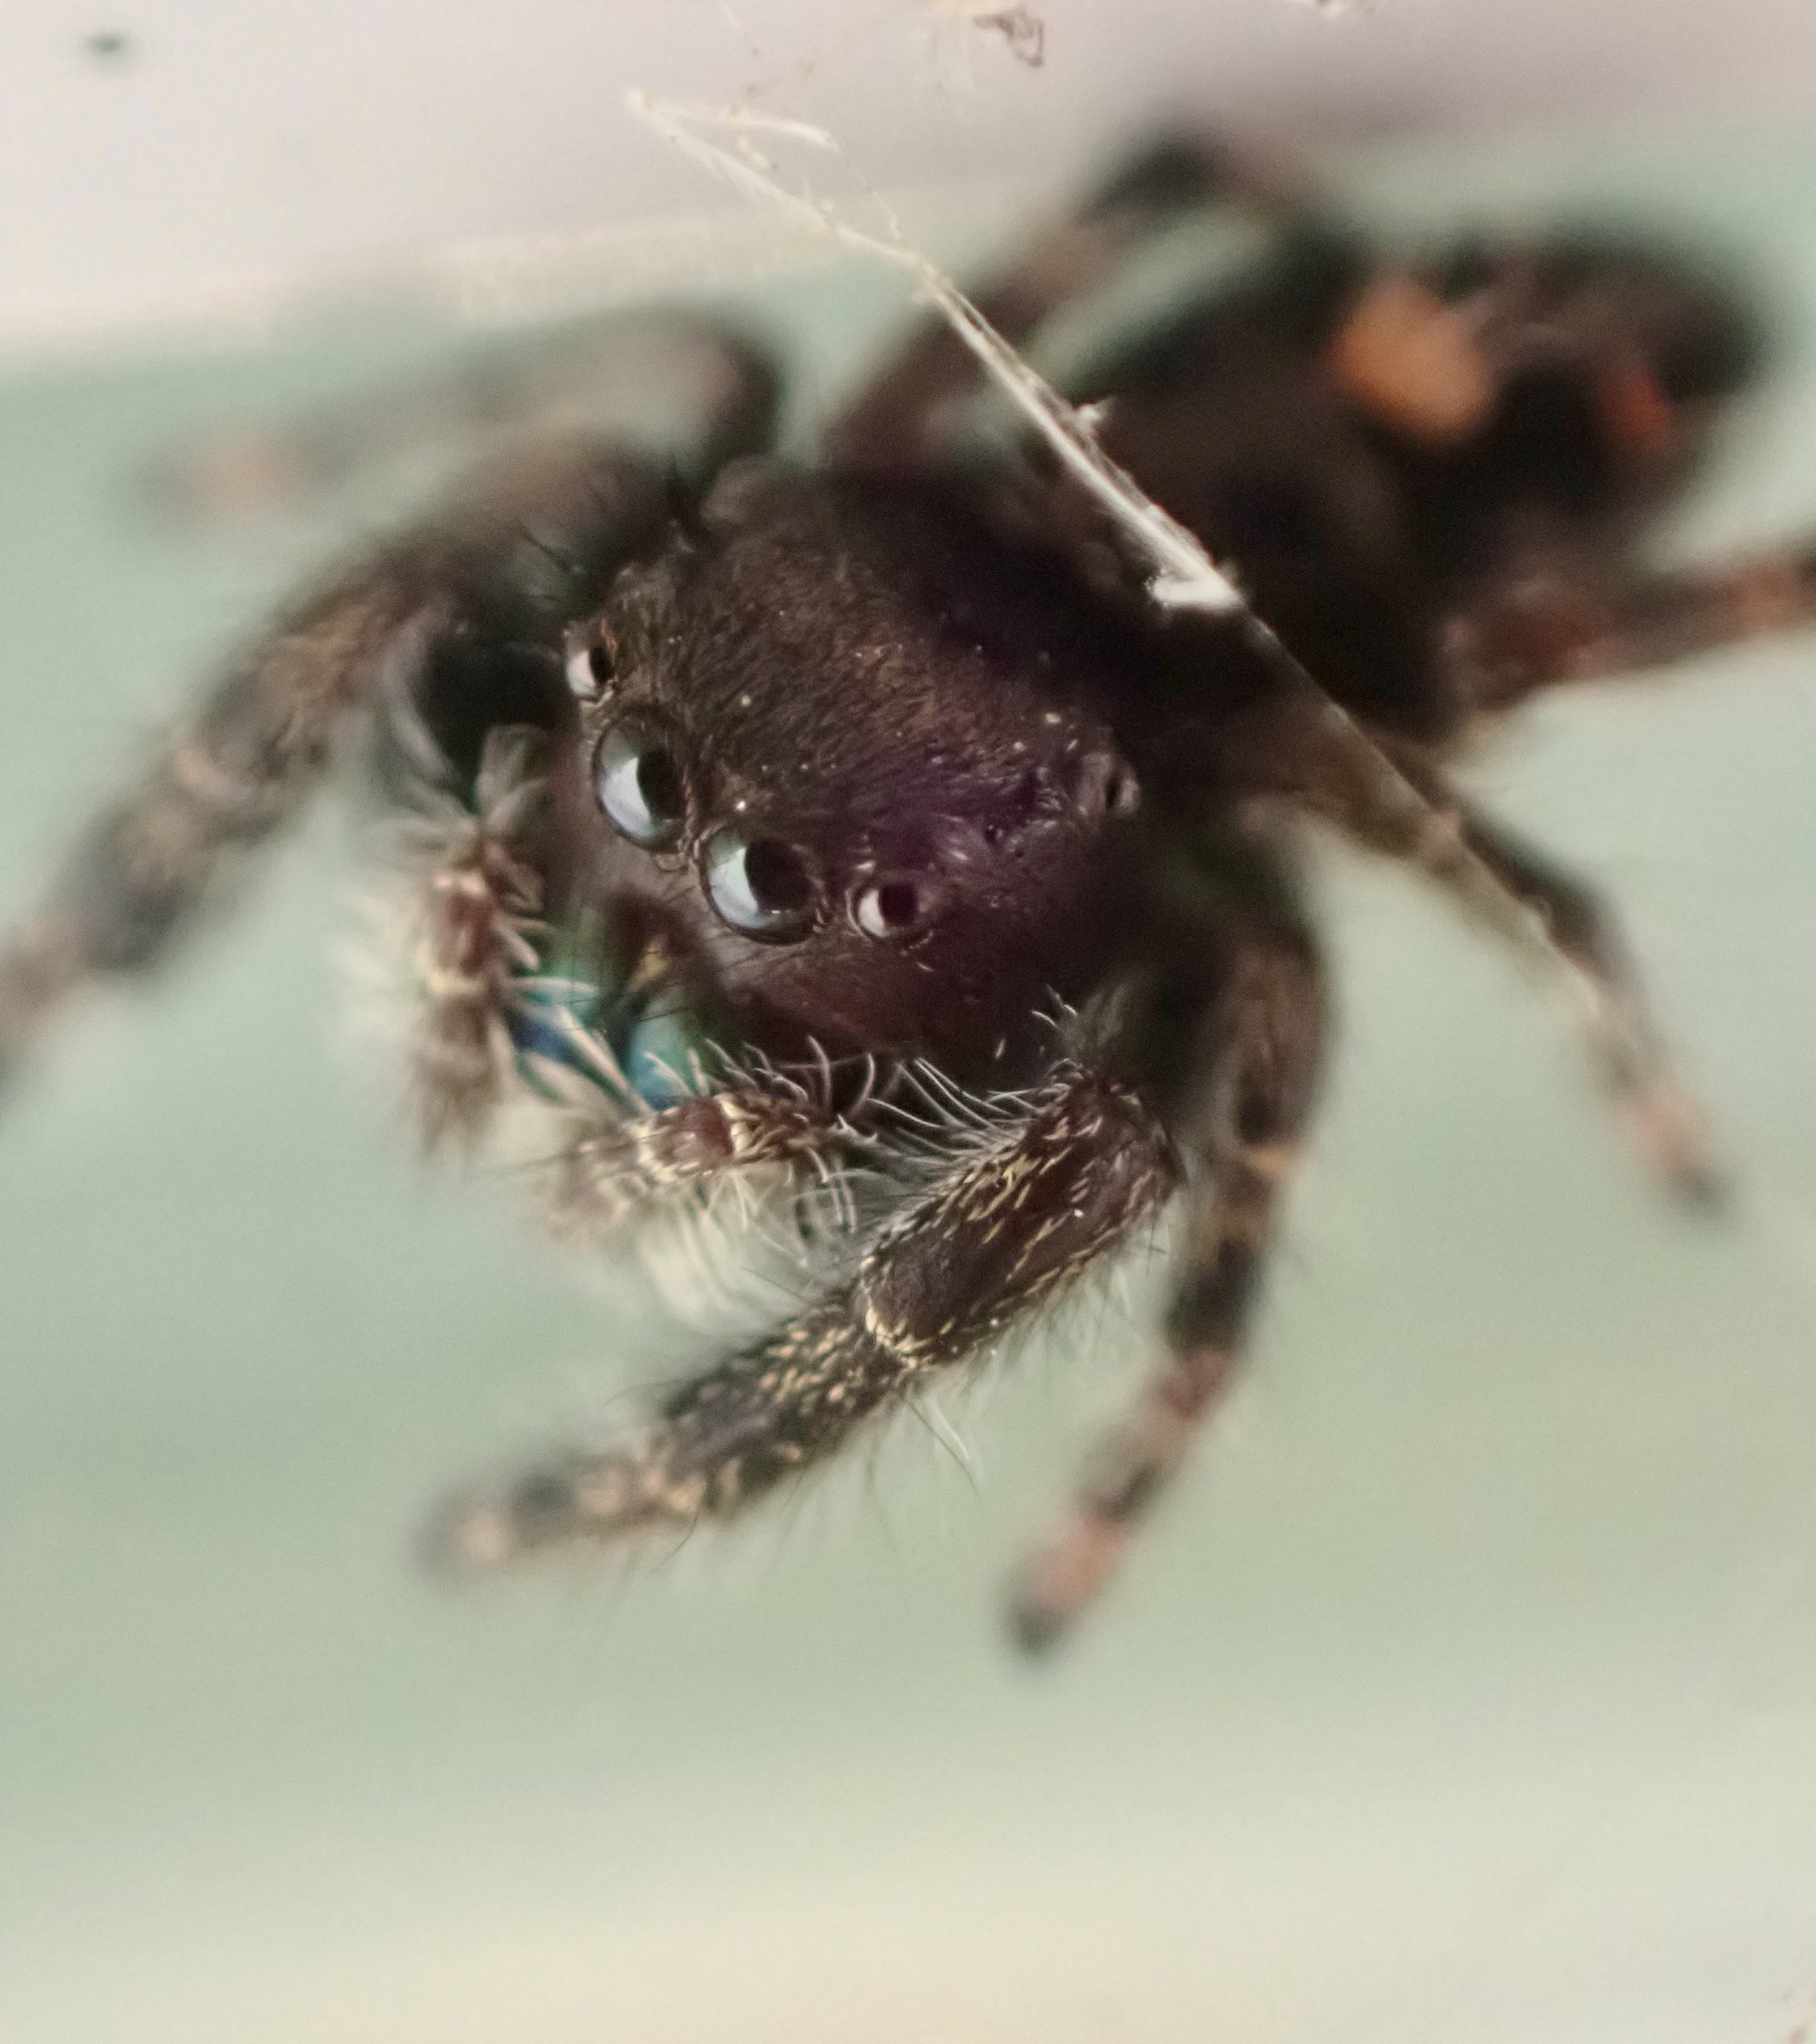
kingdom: Animalia
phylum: Arthropoda
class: Arachnida
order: Araneae
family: Salticidae
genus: Phidippus
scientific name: Phidippus audax
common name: Bold jumper
